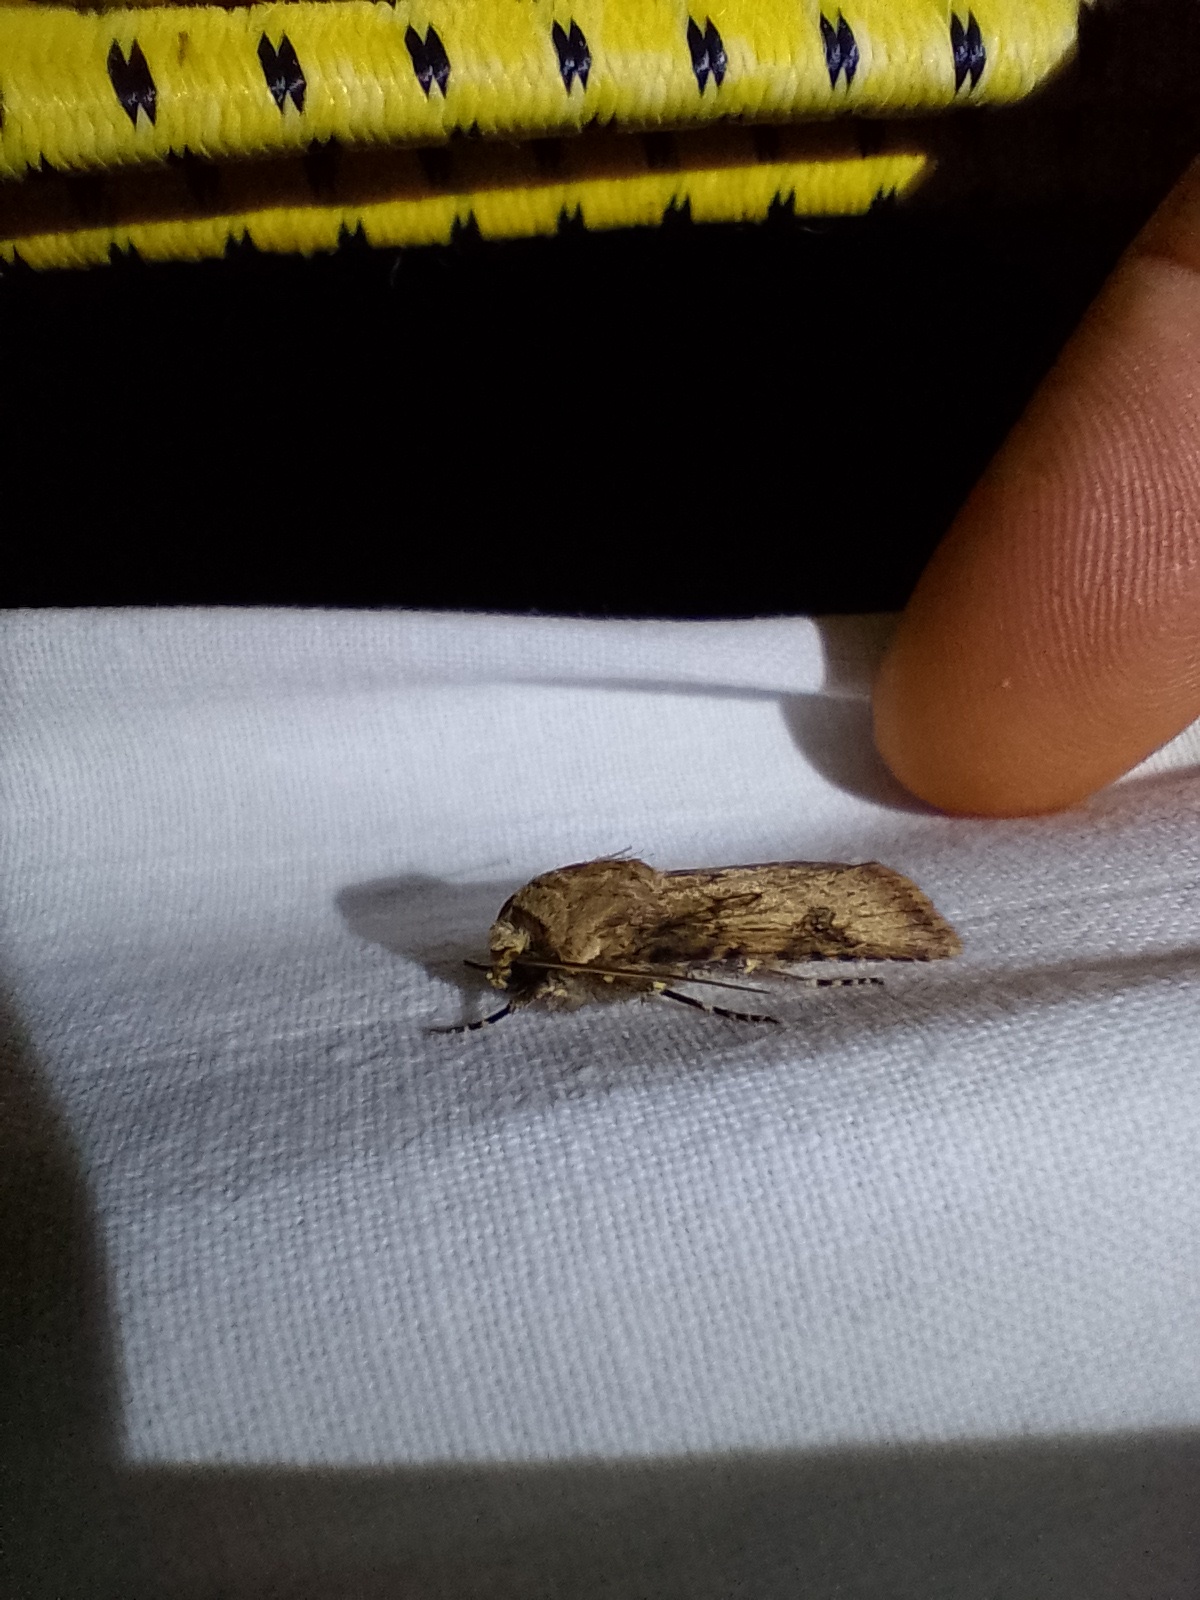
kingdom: Animalia
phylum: Arthropoda
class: Insecta
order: Lepidoptera
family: Noctuidae
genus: Agrotis
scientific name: Agrotis puta
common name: Shuttle-shaped dart
